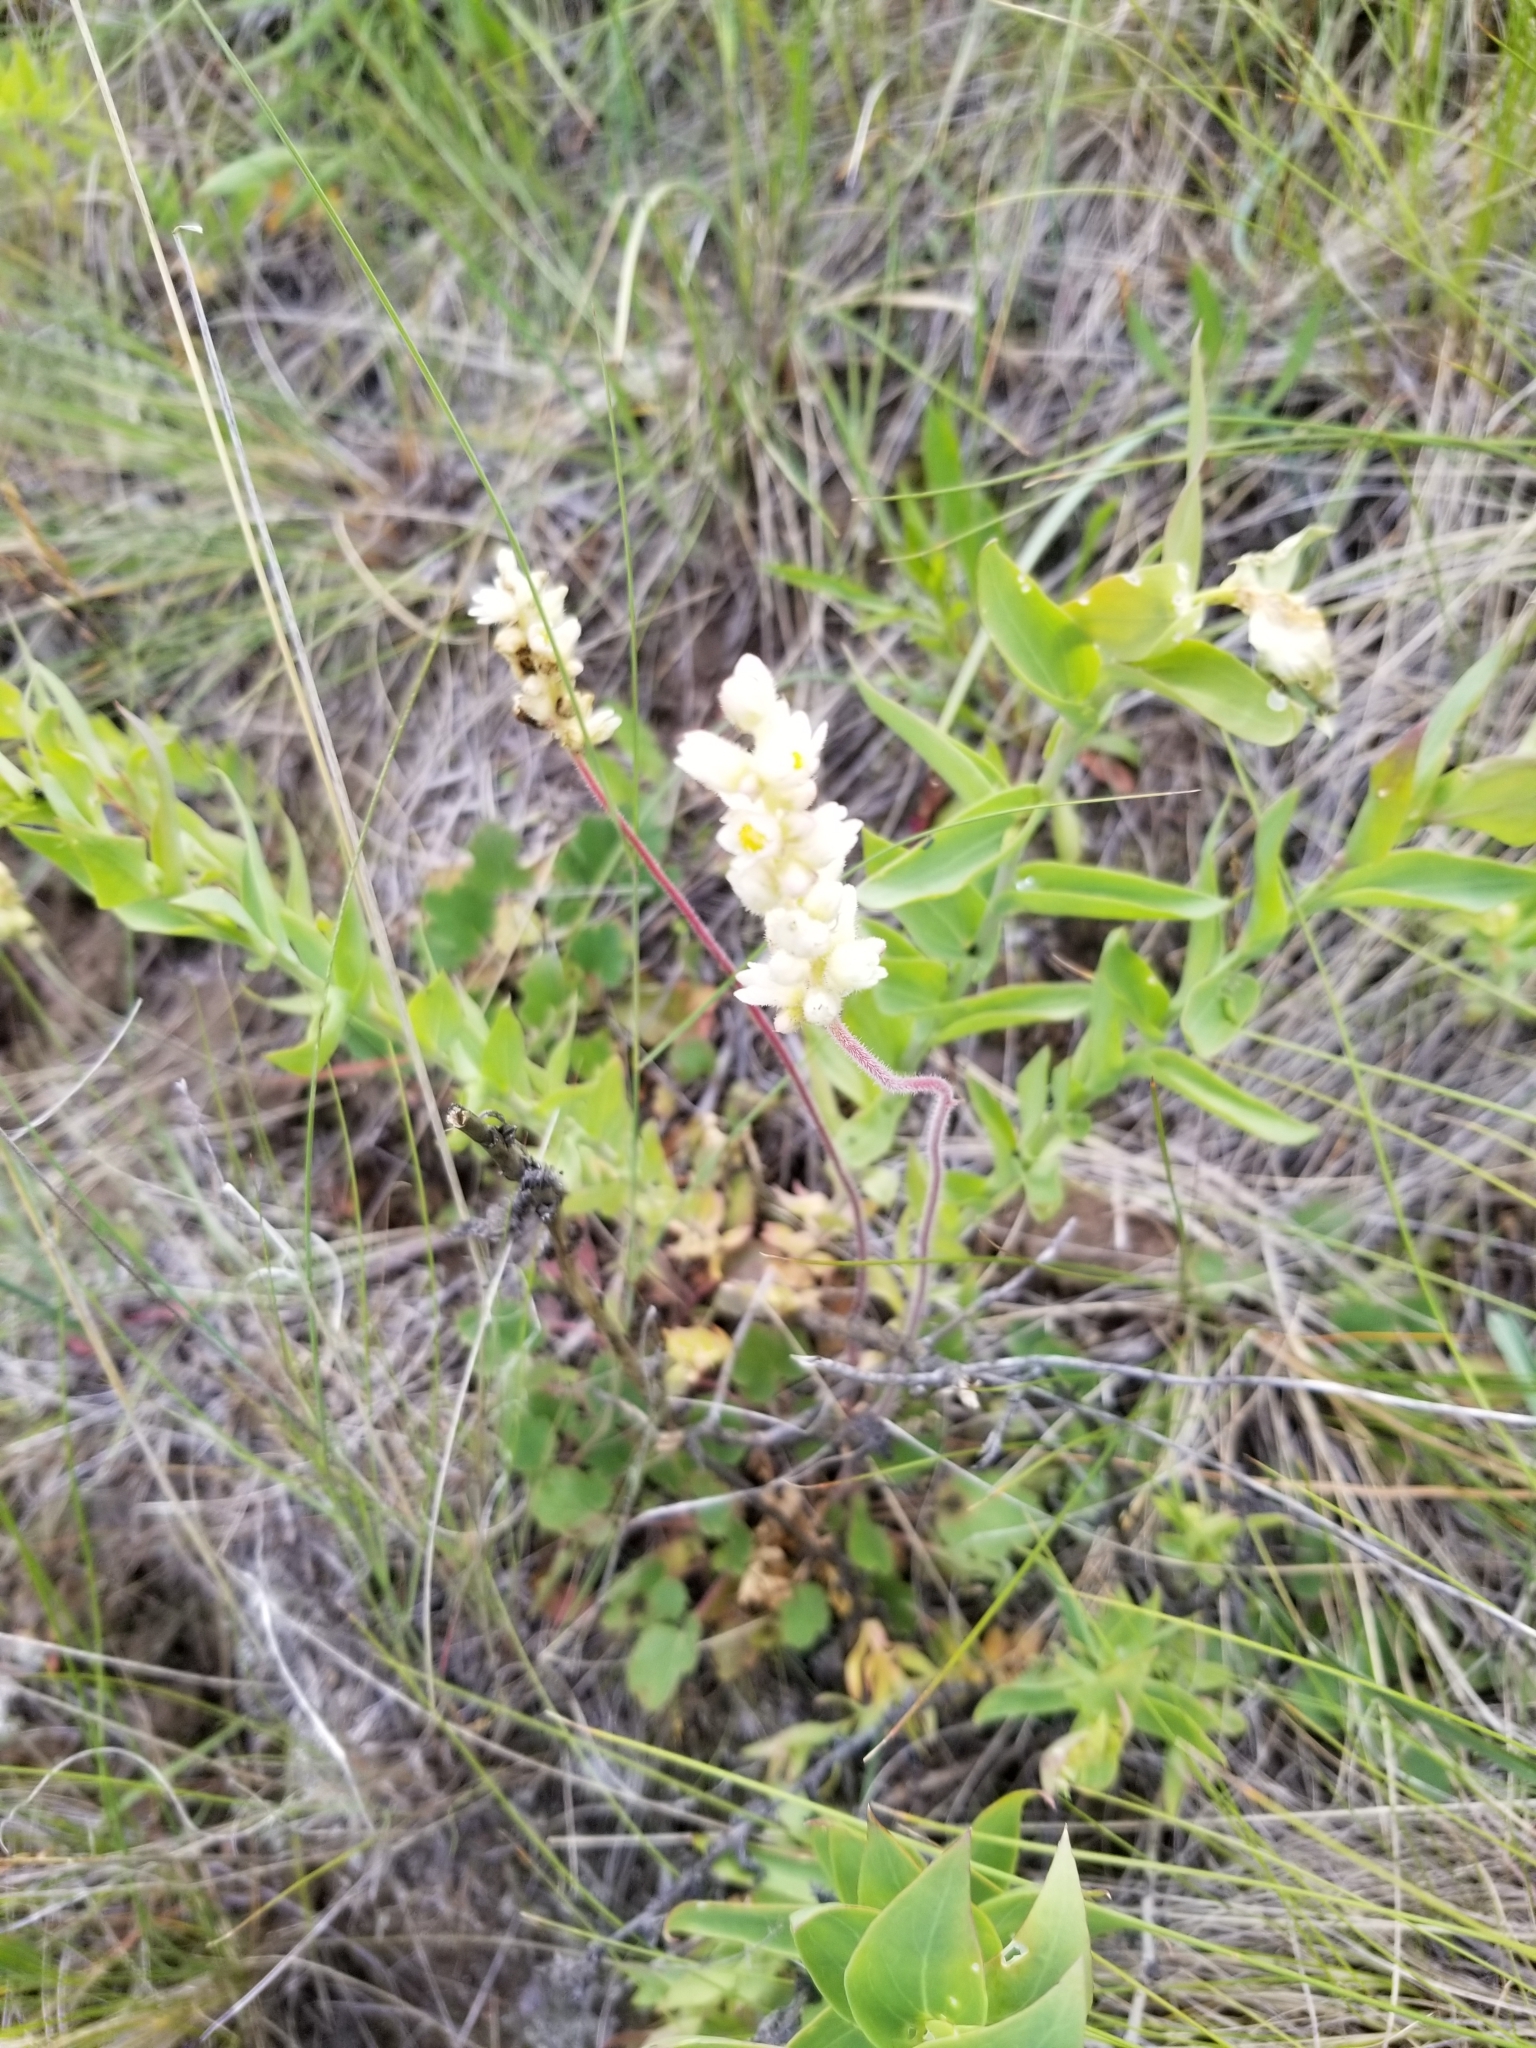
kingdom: Plantae
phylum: Tracheophyta
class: Magnoliopsida
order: Saxifragales
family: Saxifragaceae
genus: Heuchera
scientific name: Heuchera cylindrica
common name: Mat alumroot
